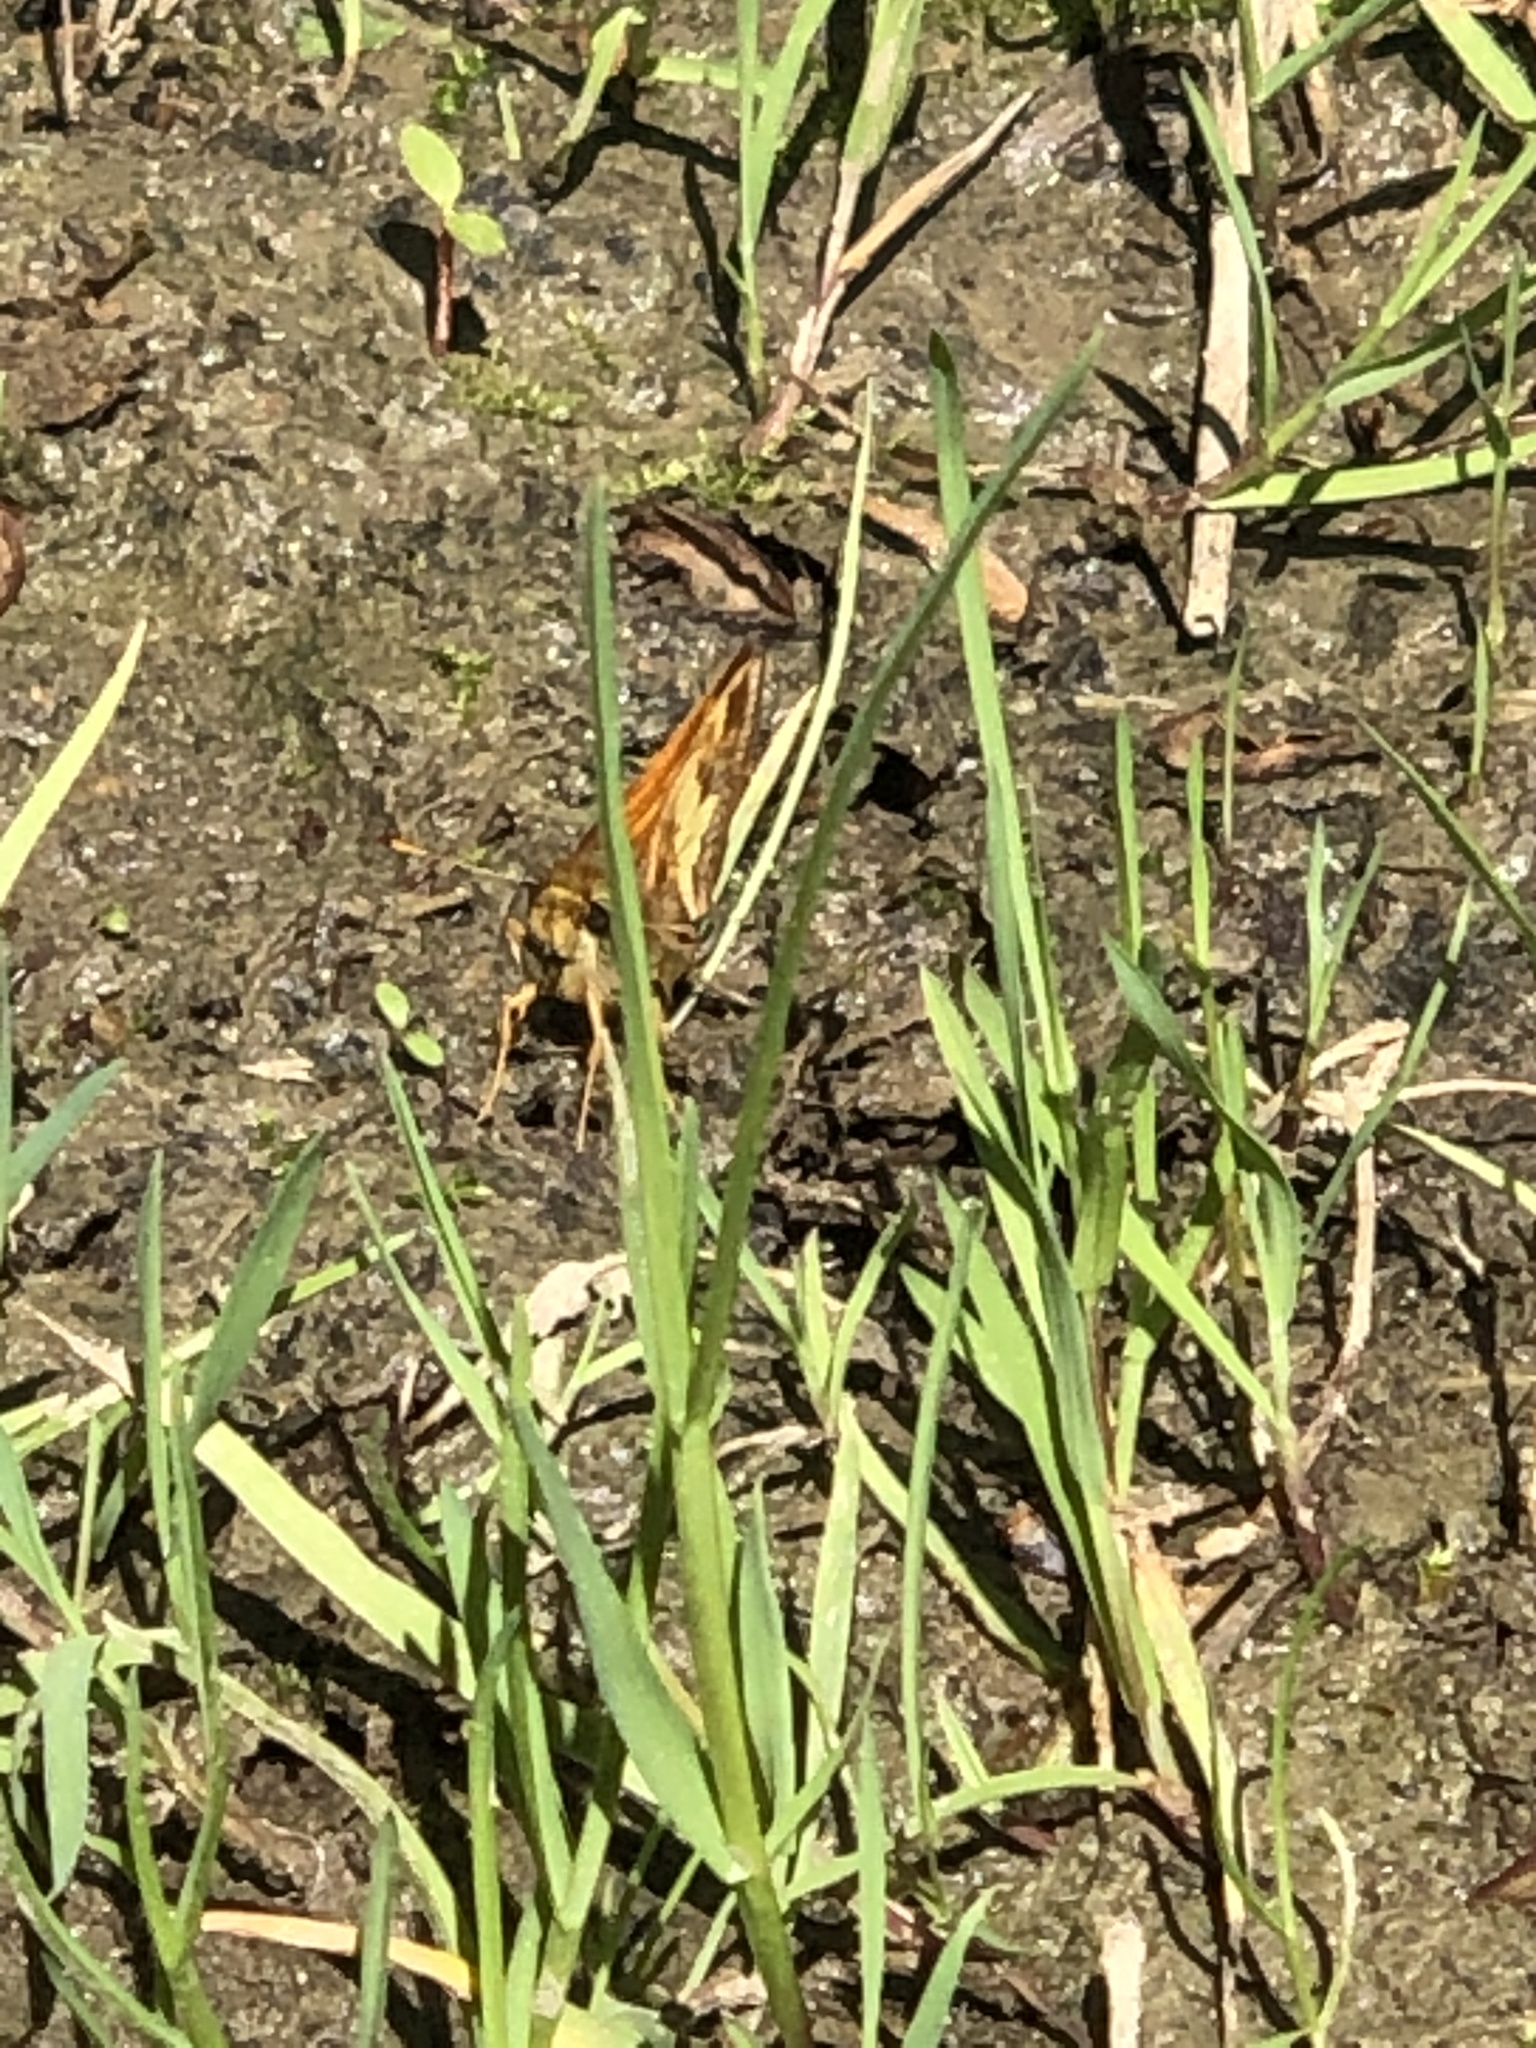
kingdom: Animalia
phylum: Arthropoda
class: Insecta
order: Lepidoptera
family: Hesperiidae
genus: Lon
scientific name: Lon hobomok
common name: Hobomok skipper
